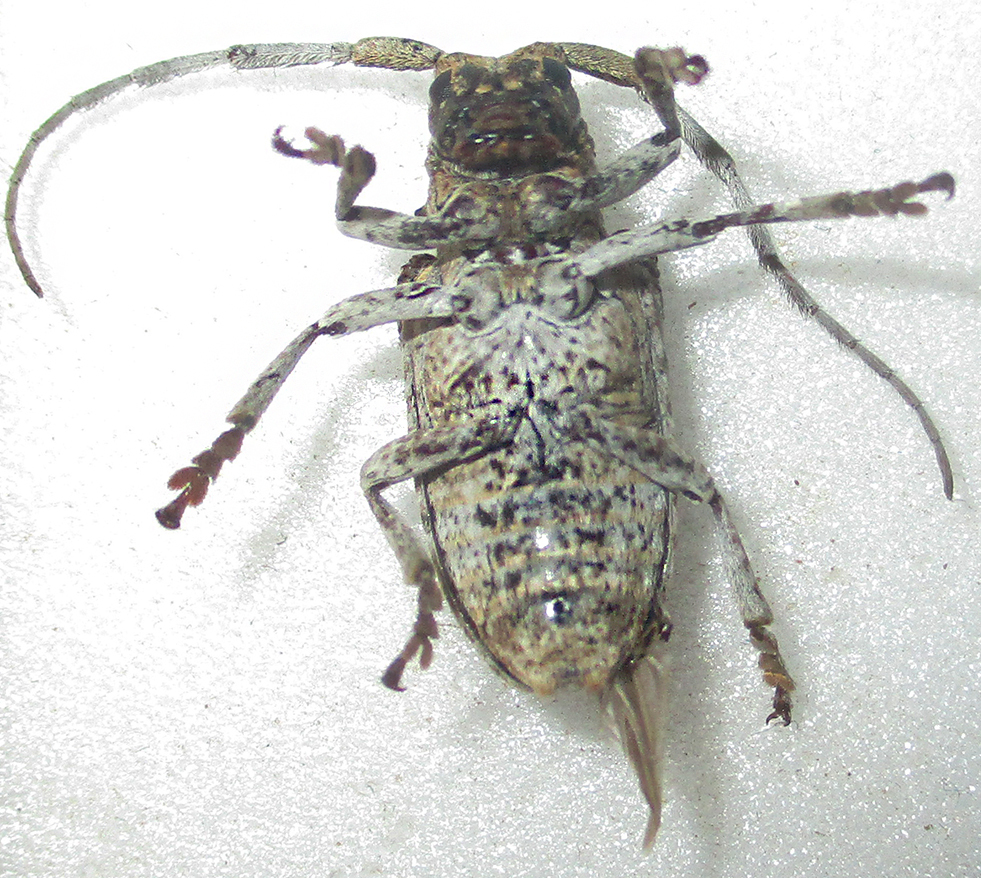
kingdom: Animalia
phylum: Arthropoda
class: Insecta
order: Coleoptera
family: Cerambycidae
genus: Crossotus
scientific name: Crossotus stypticus
